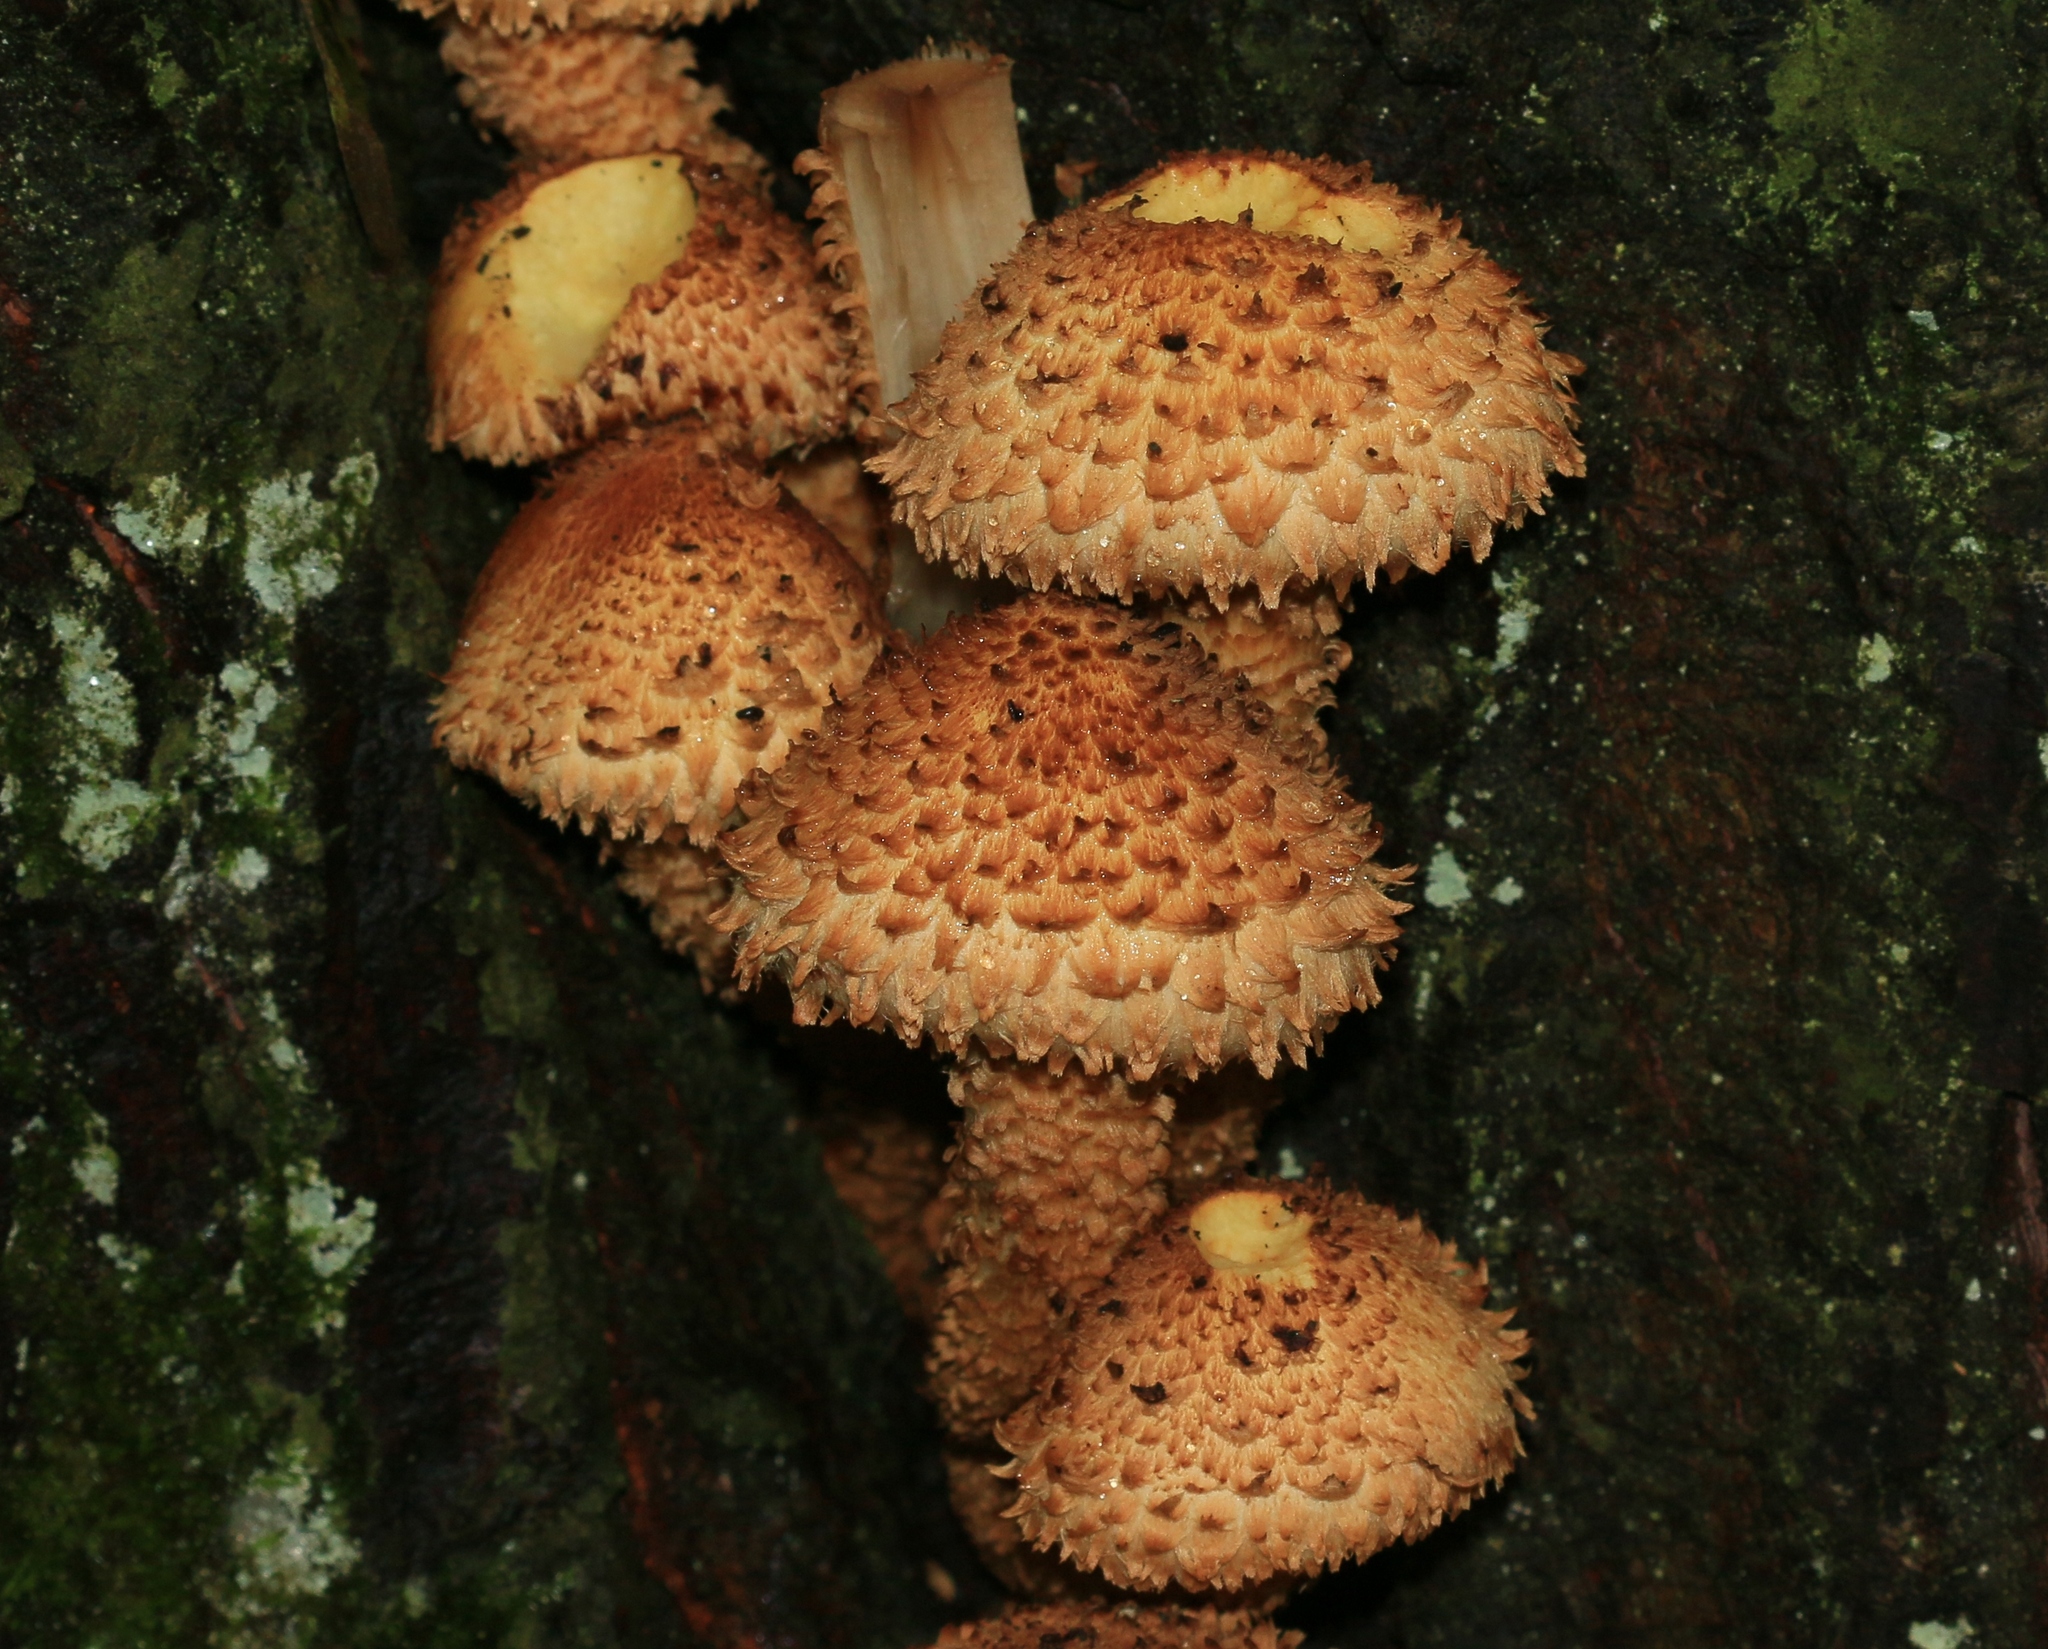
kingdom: Fungi
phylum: Basidiomycota
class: Agaricomycetes
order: Agaricales
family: Strophariaceae
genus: Pholiota
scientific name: Pholiota squarrosa
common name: Shaggy pholiota
